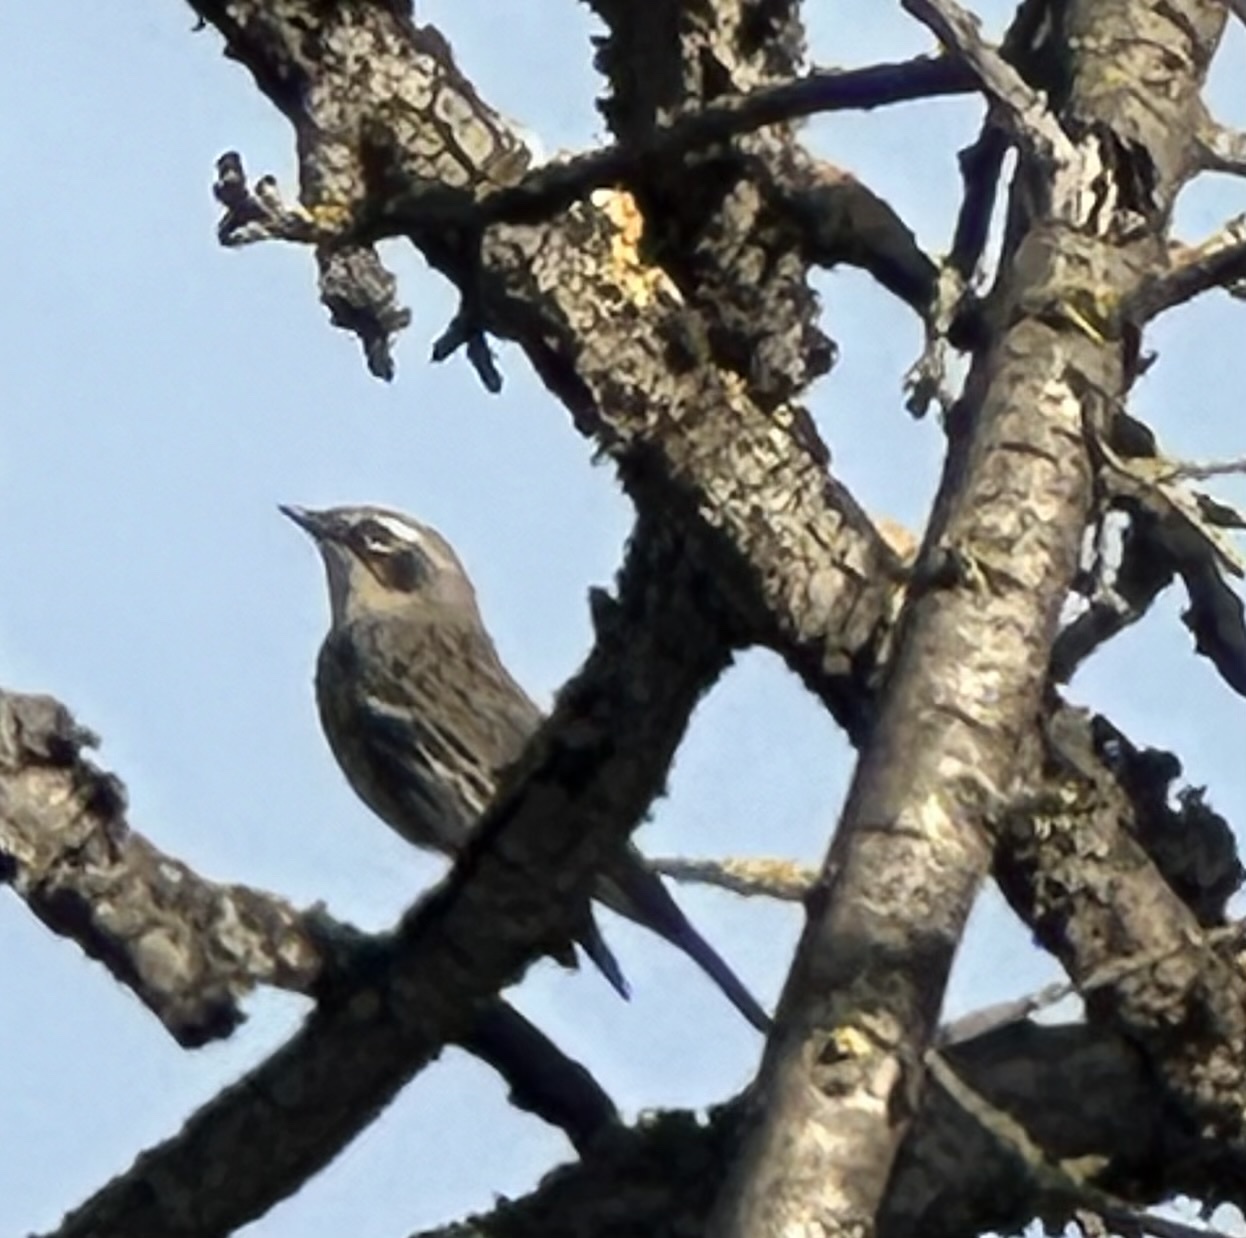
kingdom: Animalia
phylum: Chordata
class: Aves
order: Passeriformes
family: Parulidae
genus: Setophaga
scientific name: Setophaga coronata
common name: Myrtle warbler
